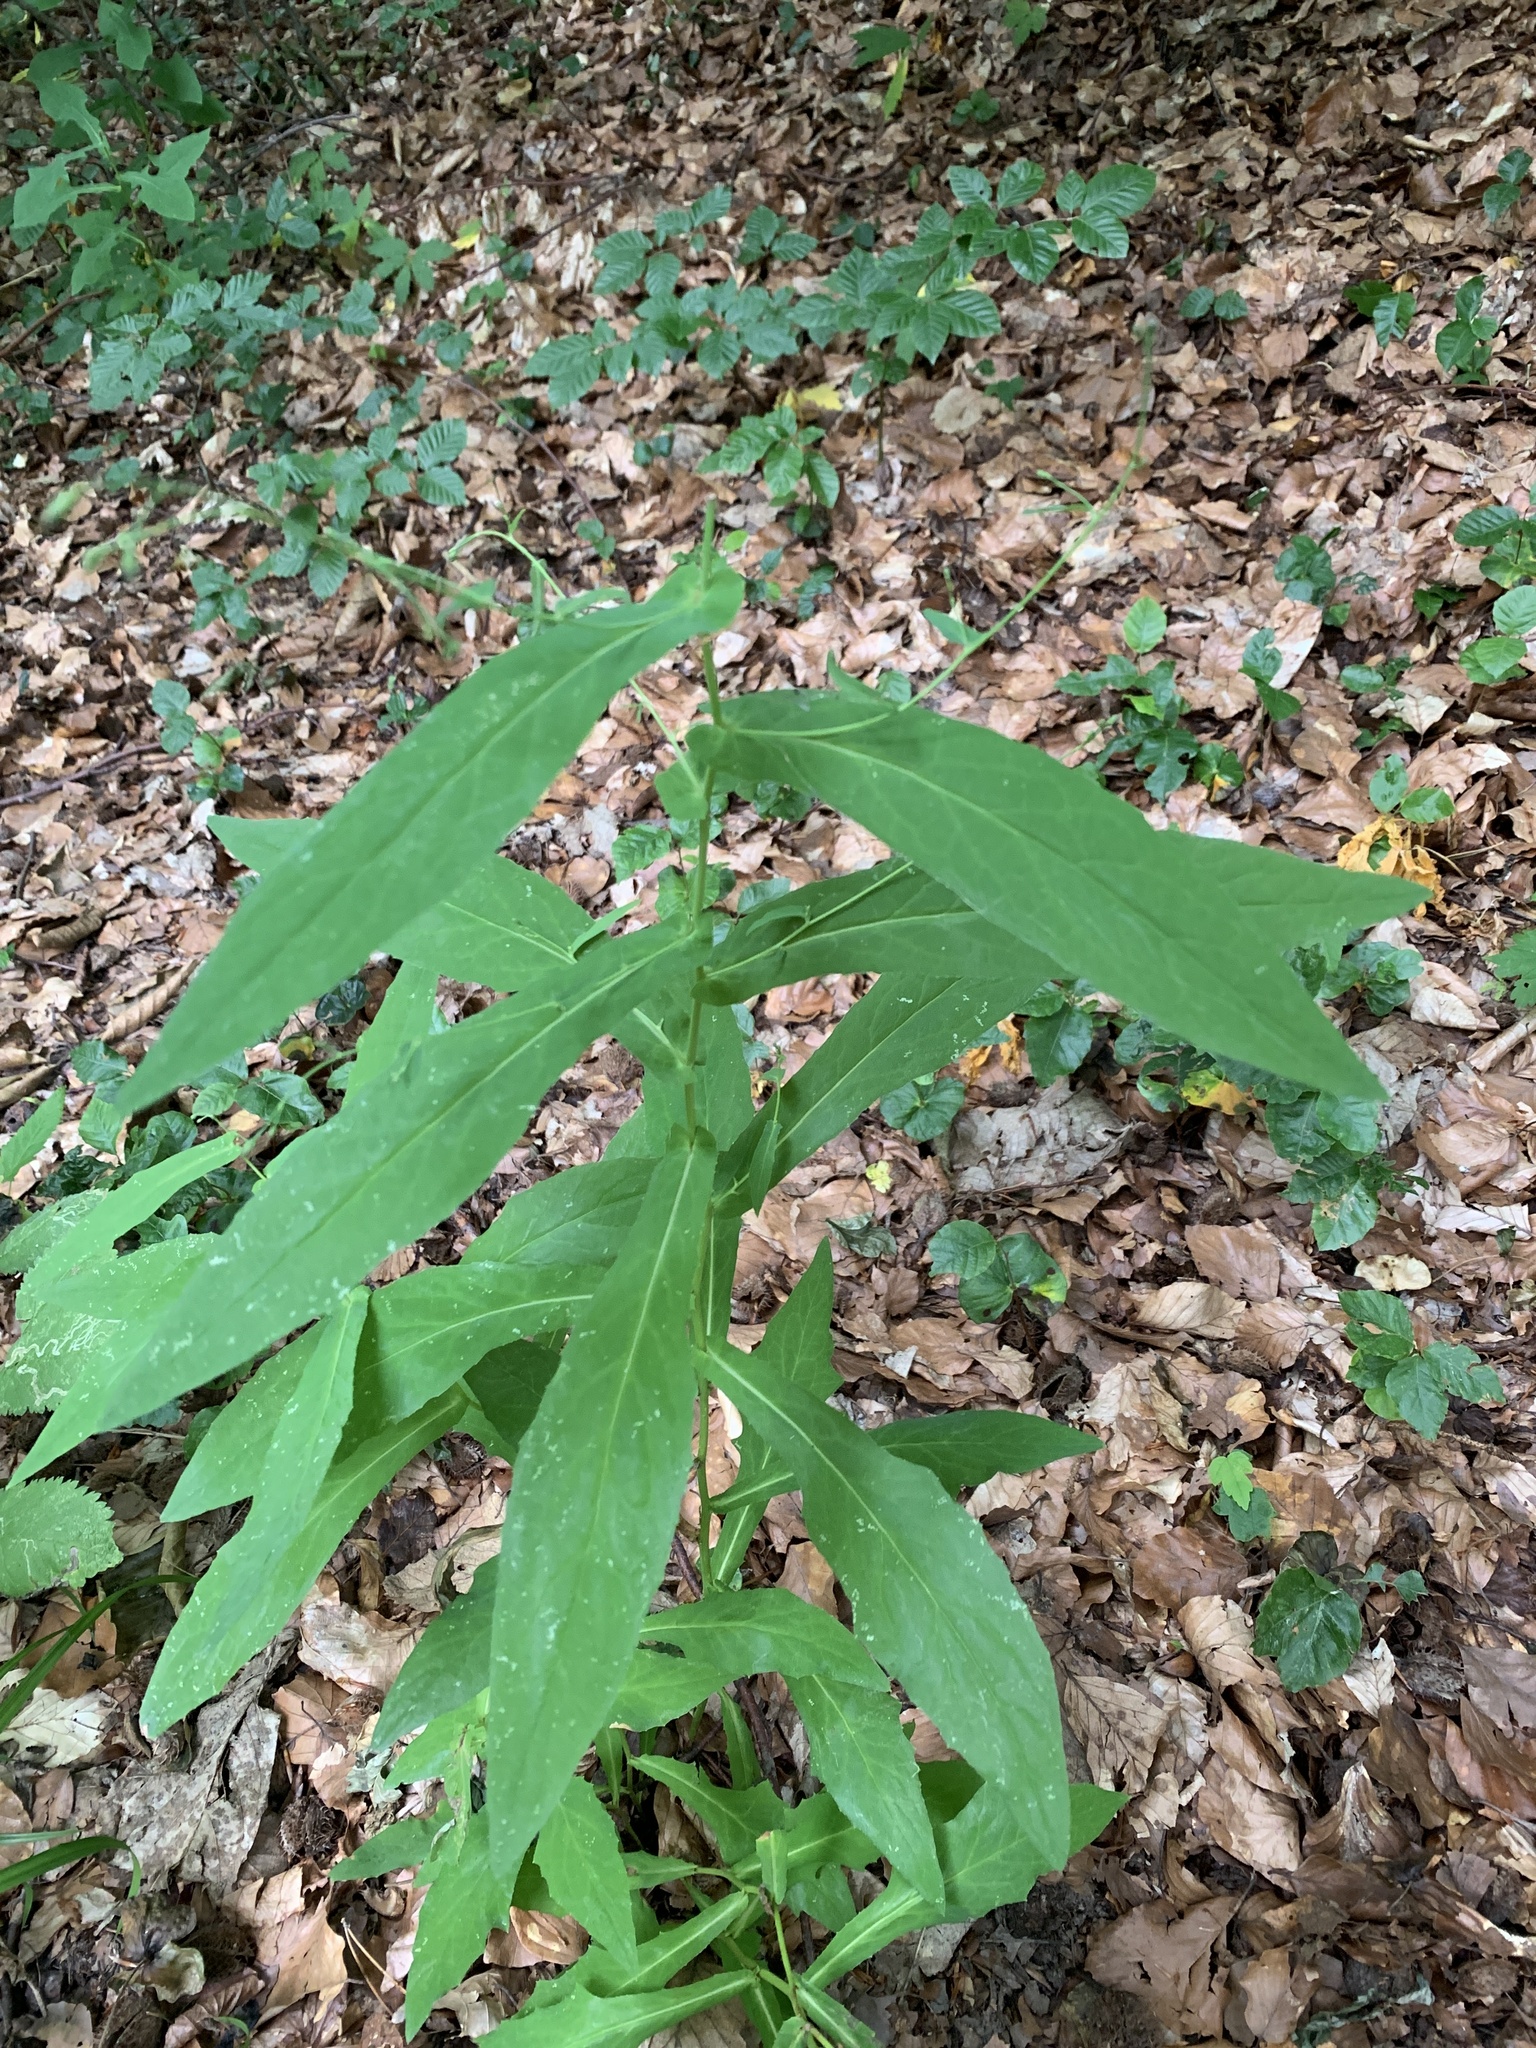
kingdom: Plantae
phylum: Tracheophyta
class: Magnoliopsida
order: Asterales
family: Asteraceae
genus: Prenanthes
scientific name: Prenanthes purpurea
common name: Purple lettuce
